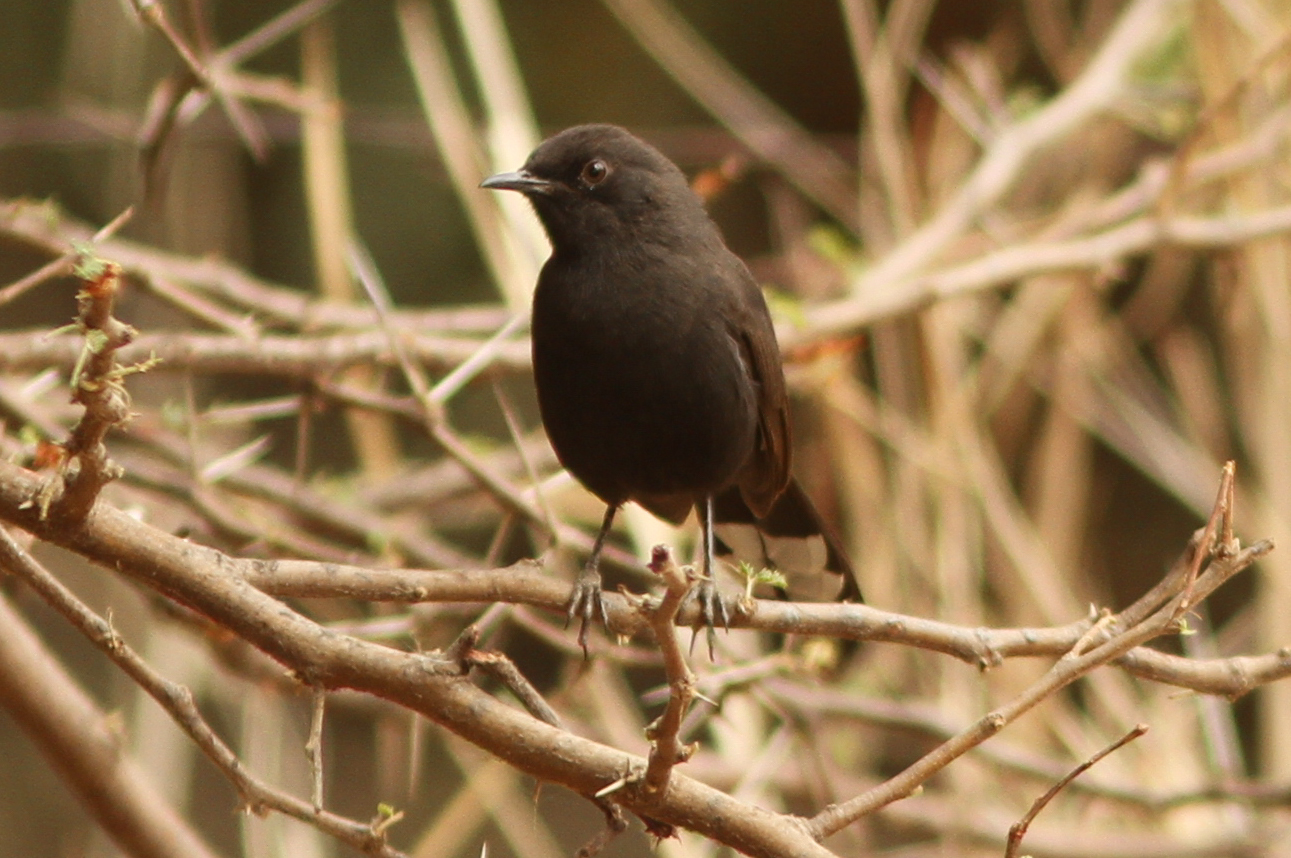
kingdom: Animalia
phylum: Chordata
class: Aves
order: Passeriformes
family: Muscicapidae
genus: Cercotrichas
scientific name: Cercotrichas podobe
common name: Black scrub robin
